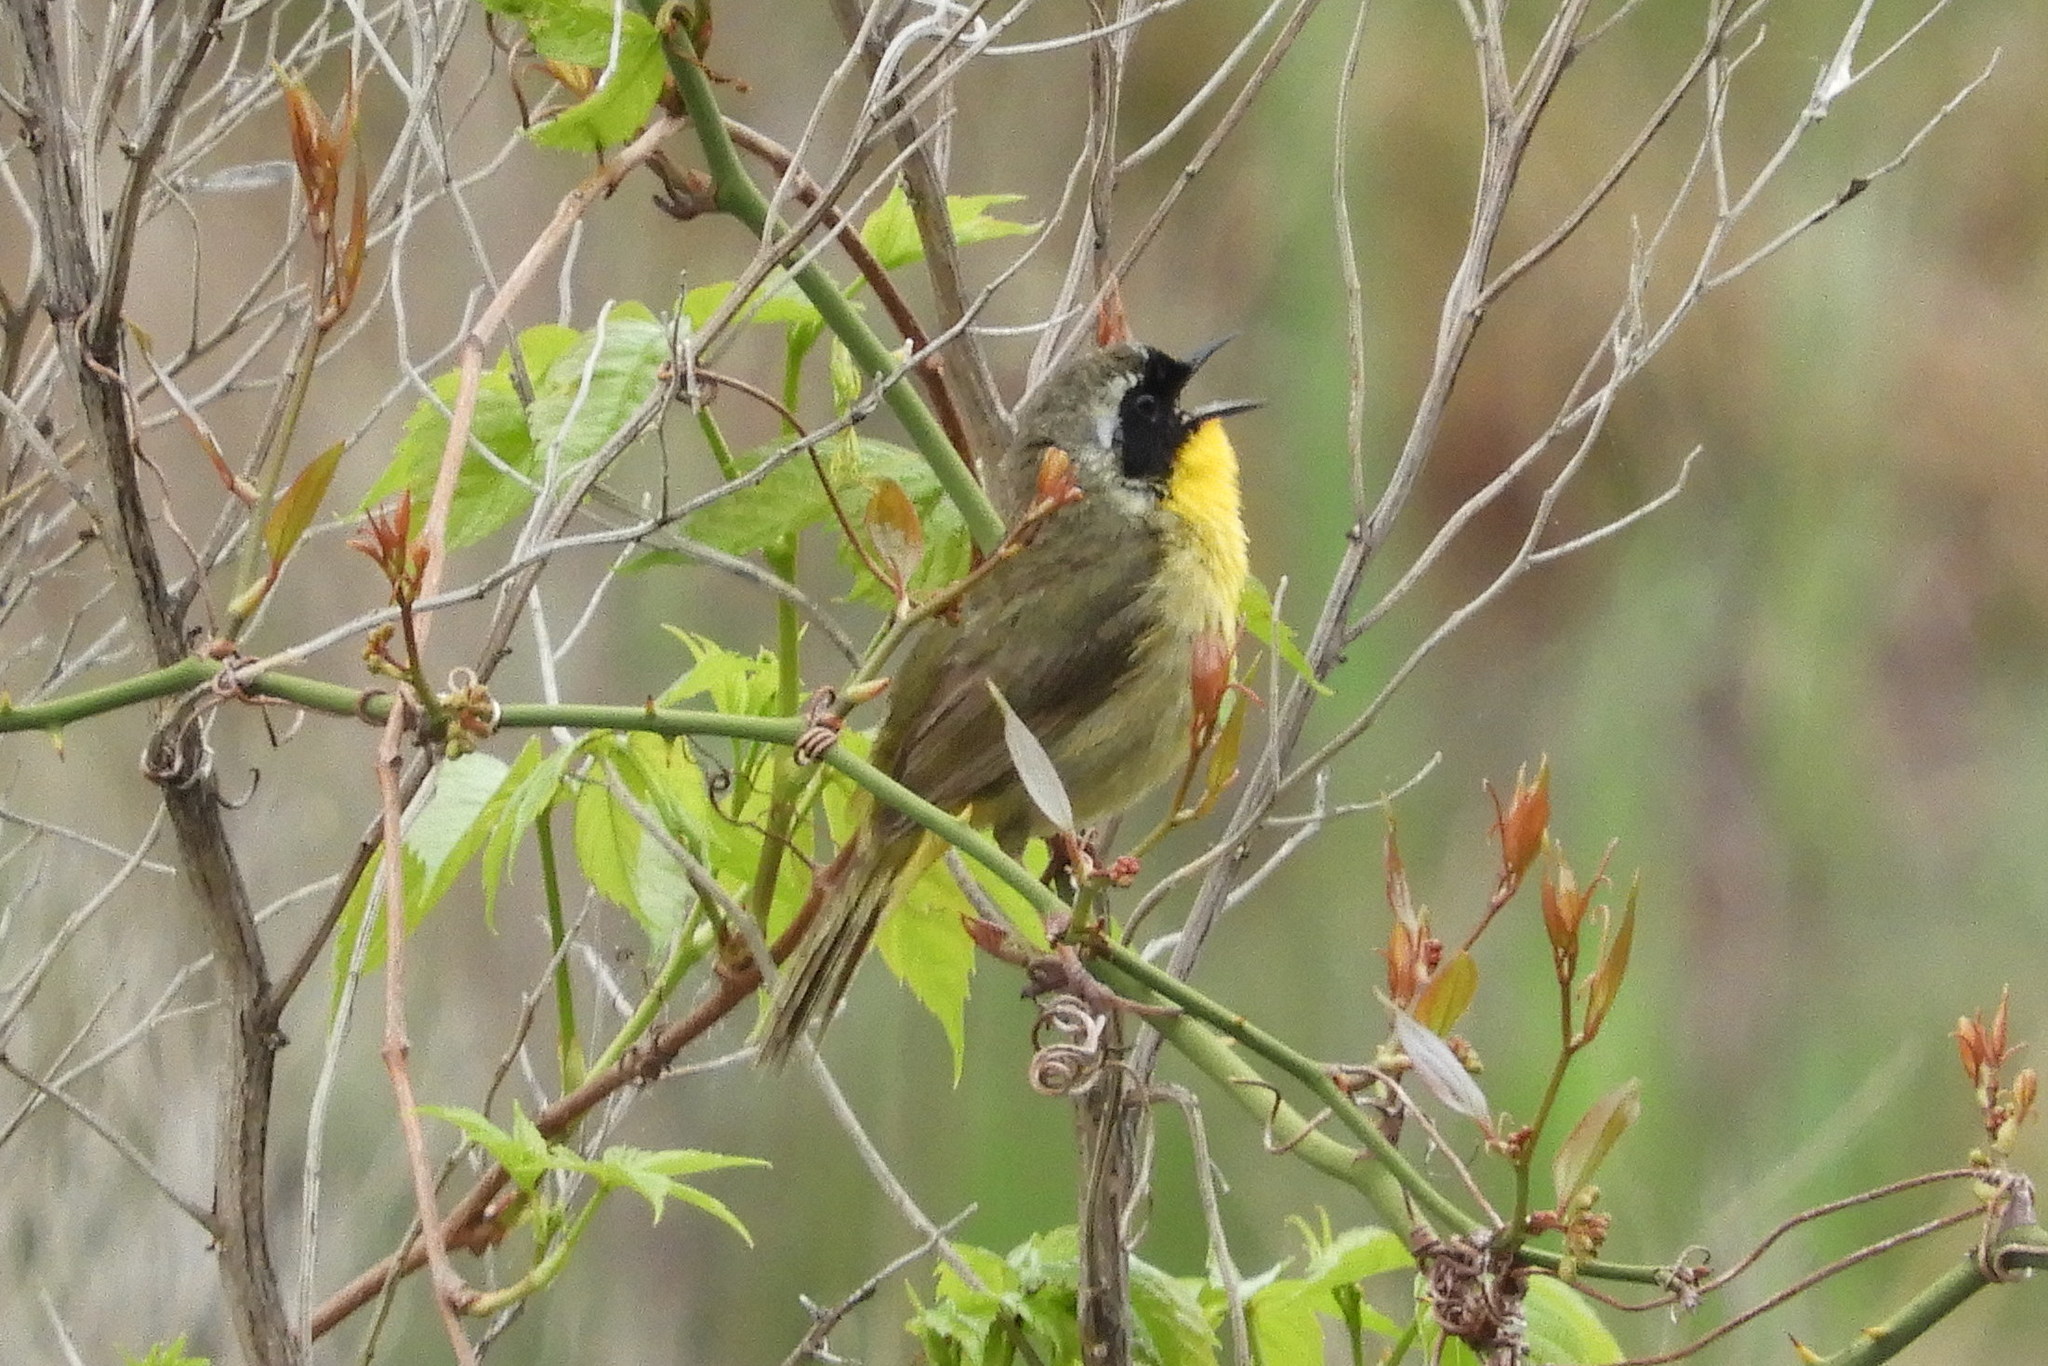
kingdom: Animalia
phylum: Chordata
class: Aves
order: Passeriformes
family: Parulidae
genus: Geothlypis
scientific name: Geothlypis trichas
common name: Common yellowthroat
